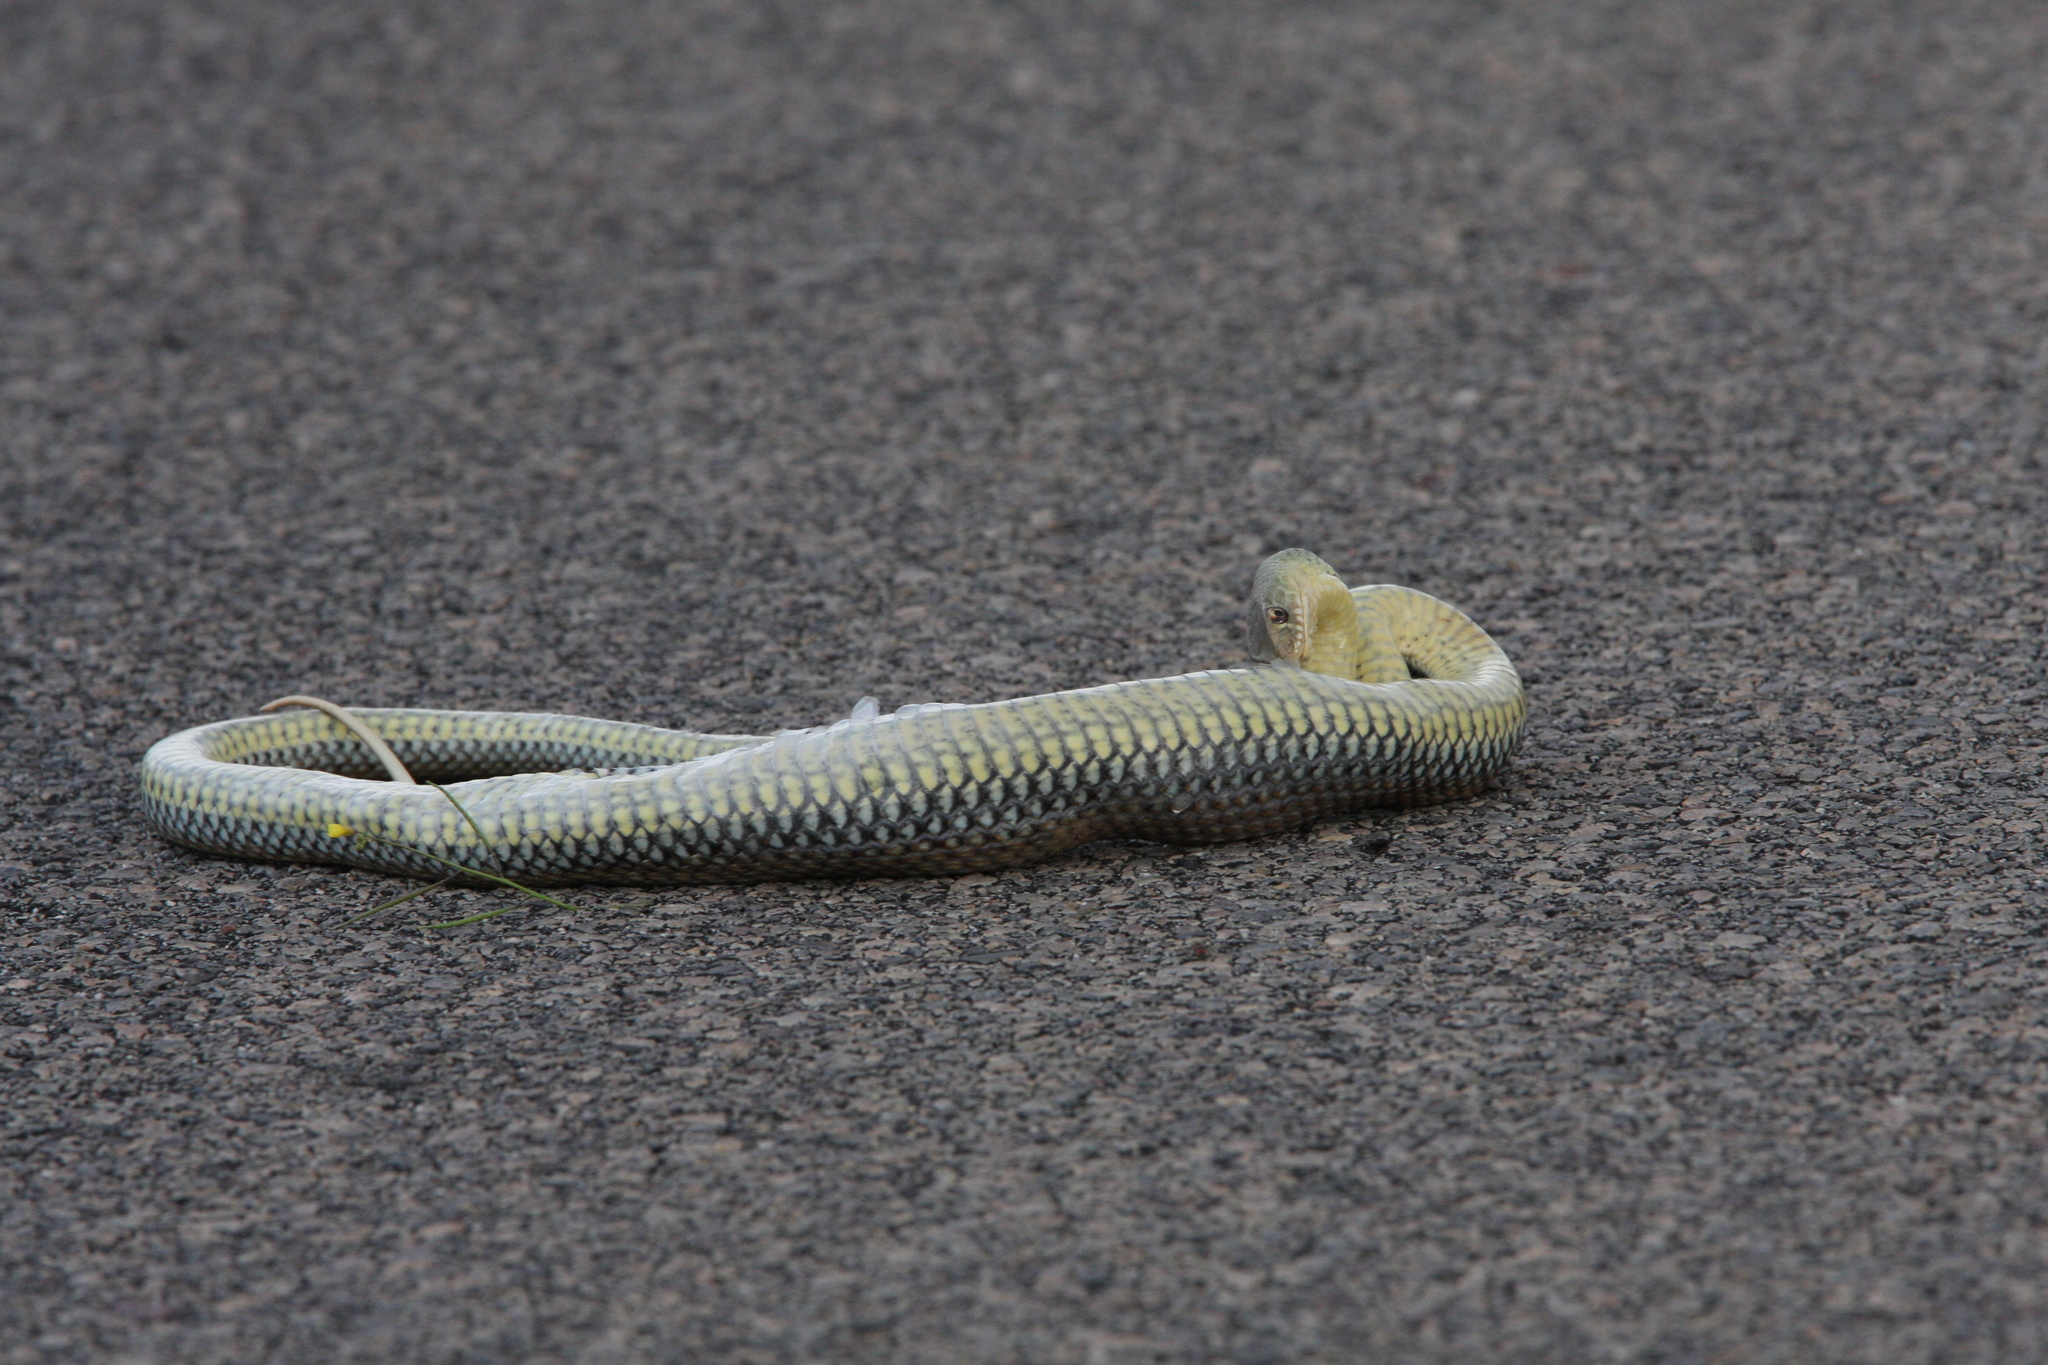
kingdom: Animalia
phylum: Chordata
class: Squamata
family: Psammophiidae
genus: Malpolon
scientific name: Malpolon monspessulanus
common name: Montpellier snake
